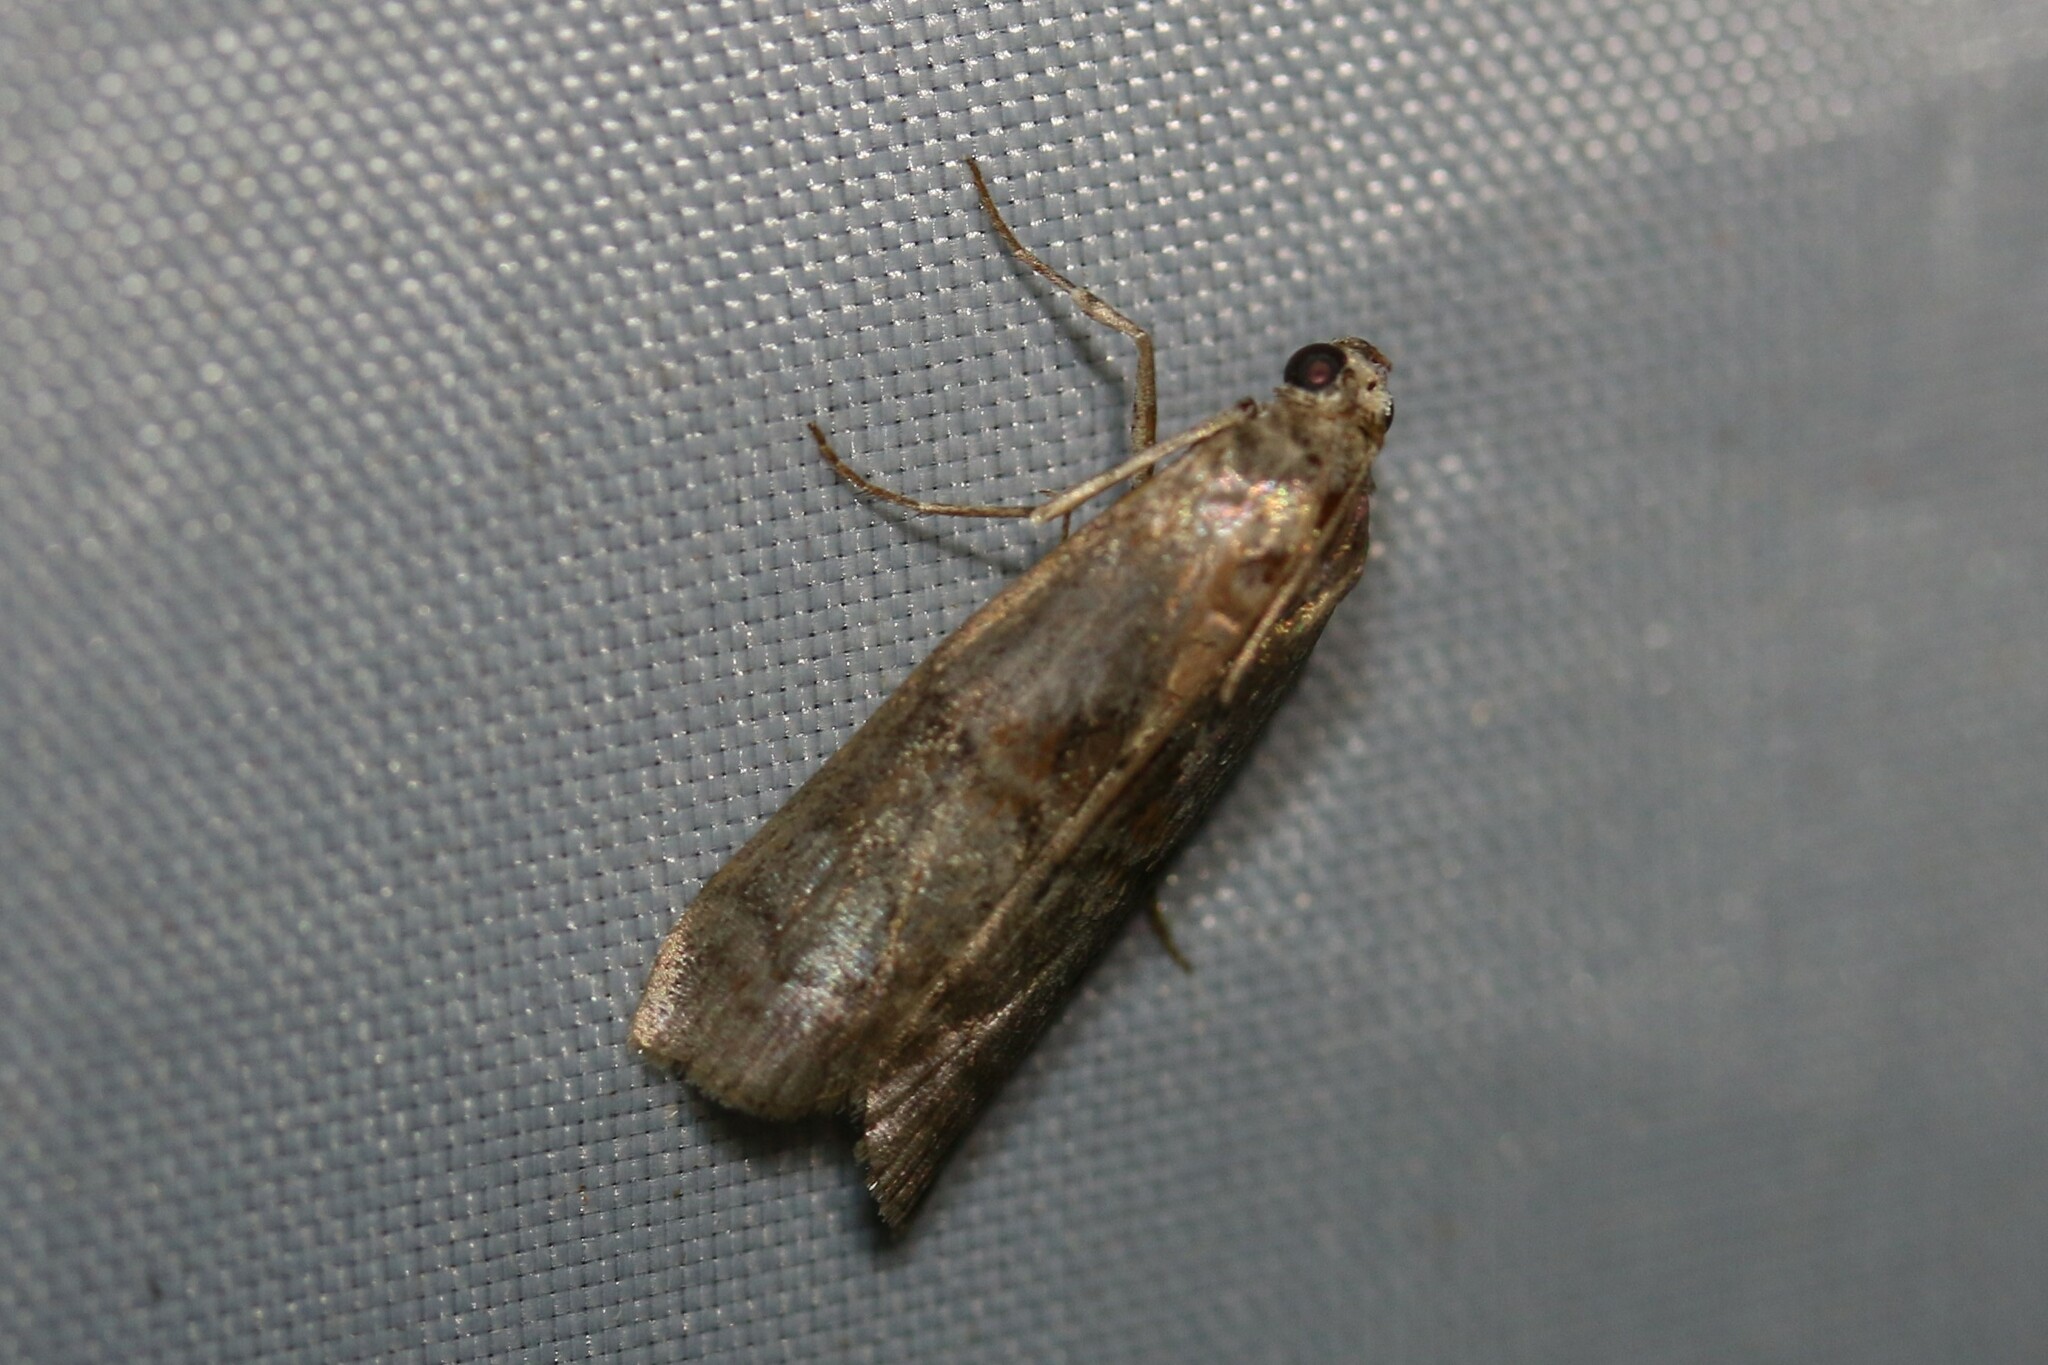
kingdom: Animalia
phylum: Arthropoda
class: Insecta
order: Lepidoptera
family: Pyralidae
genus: Phycita
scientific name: Phycita roborella
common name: Dotted oak knot-horn
